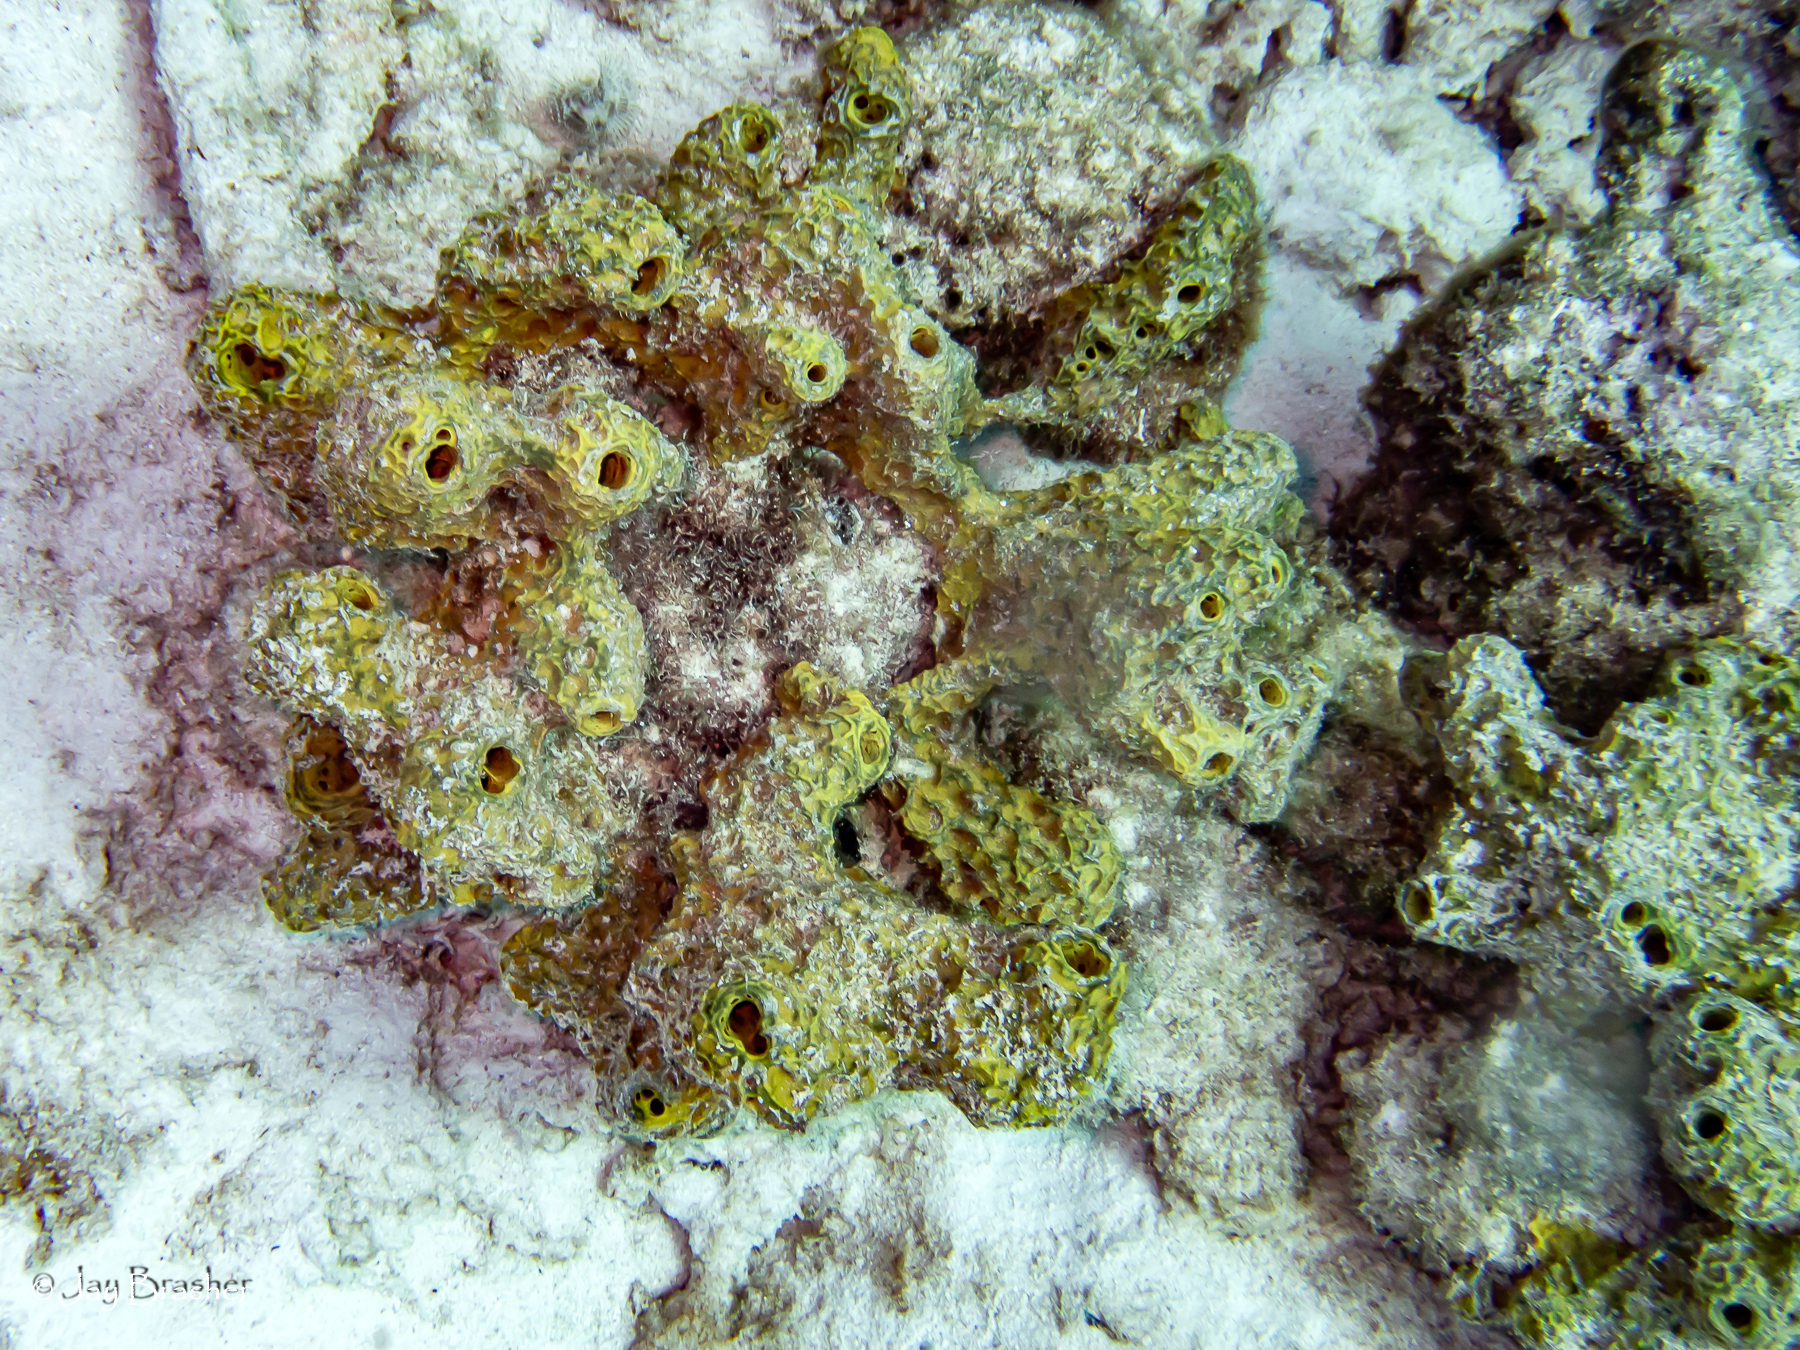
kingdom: Animalia
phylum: Porifera
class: Demospongiae
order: Verongiida
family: Aplysinidae
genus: Verongula
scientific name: Verongula rigida
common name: Pitted sponge
